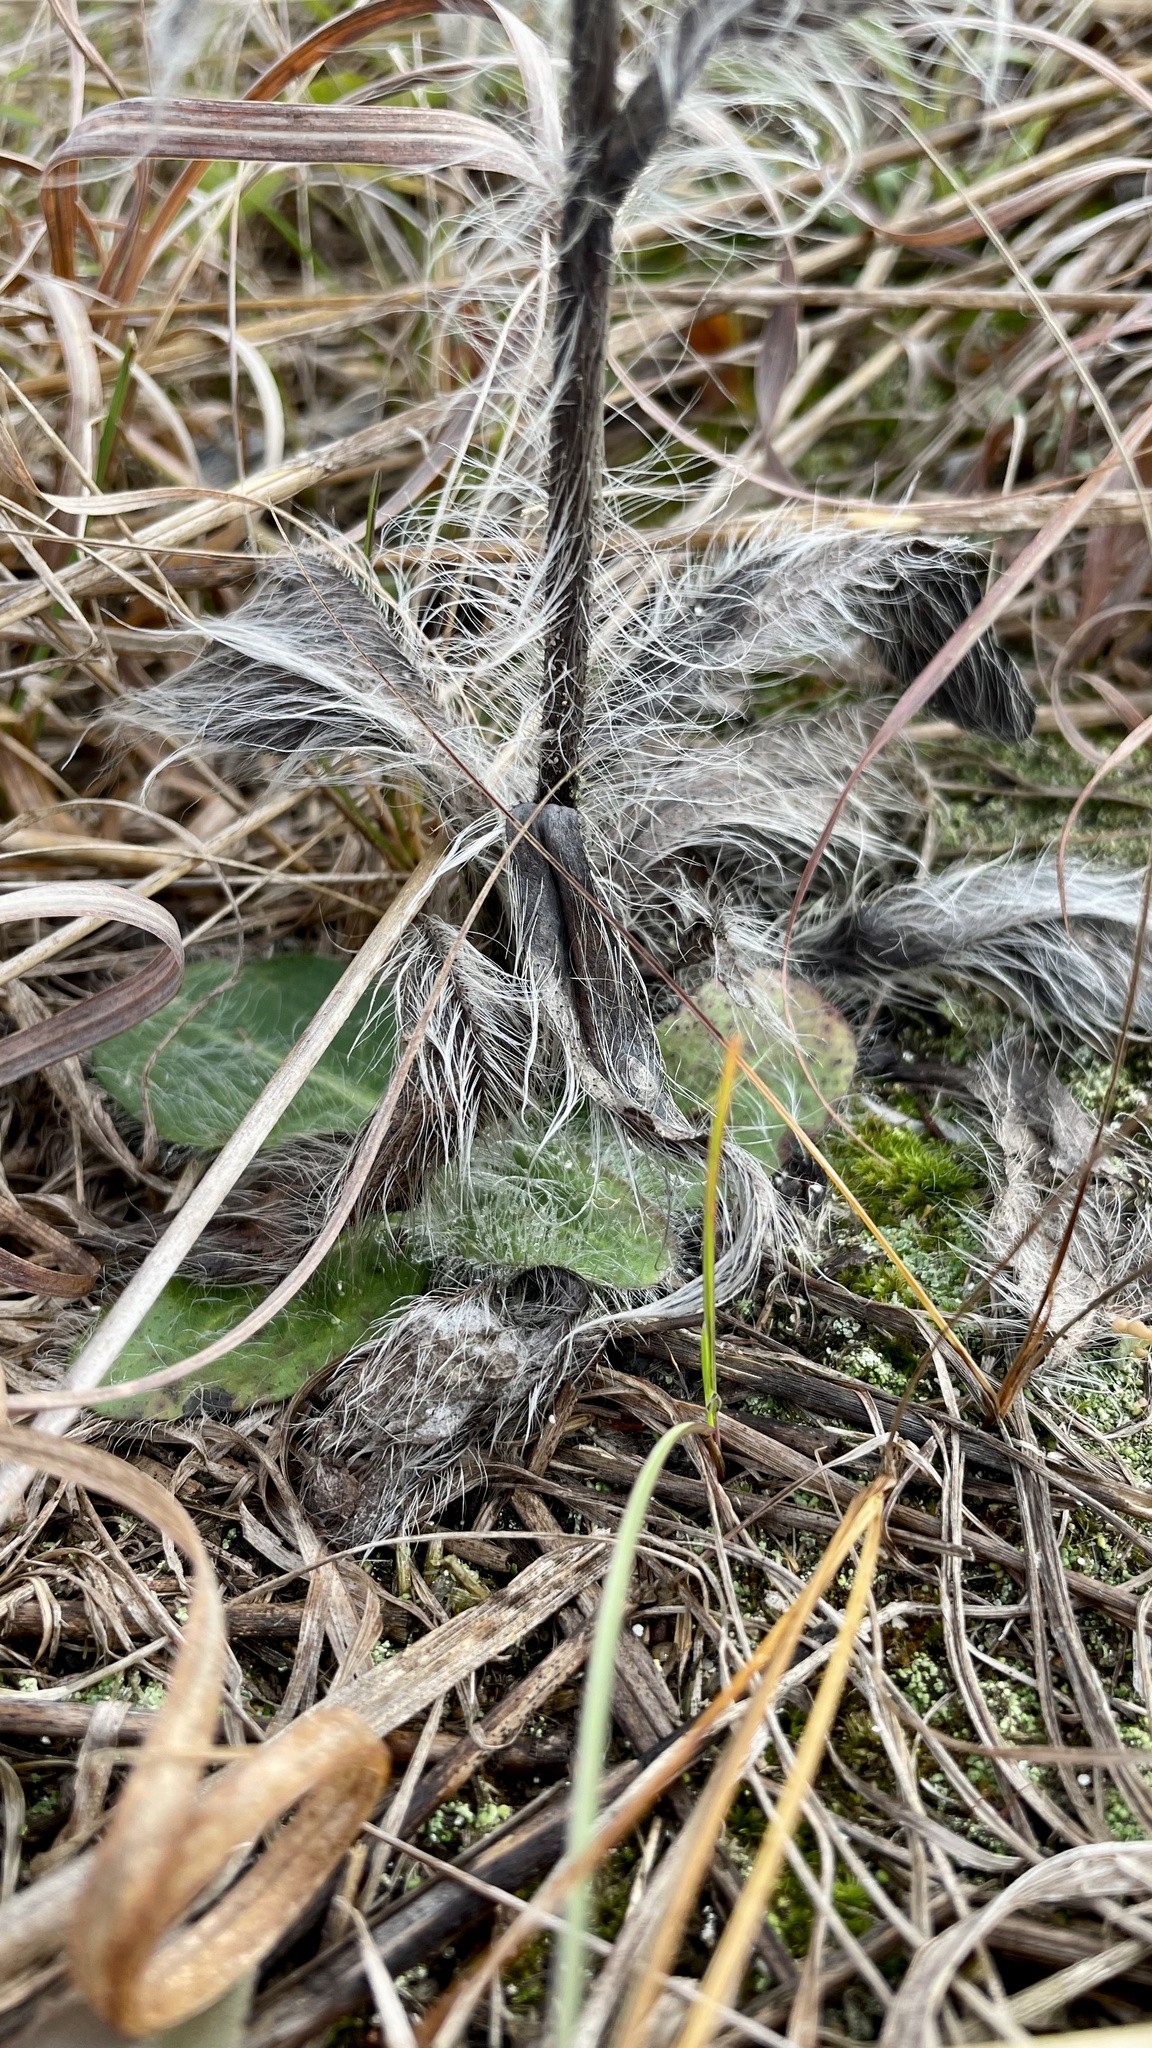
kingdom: Plantae
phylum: Tracheophyta
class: Magnoliopsida
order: Asterales
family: Asteraceae
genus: Hieracium
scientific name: Hieracium longipilum
